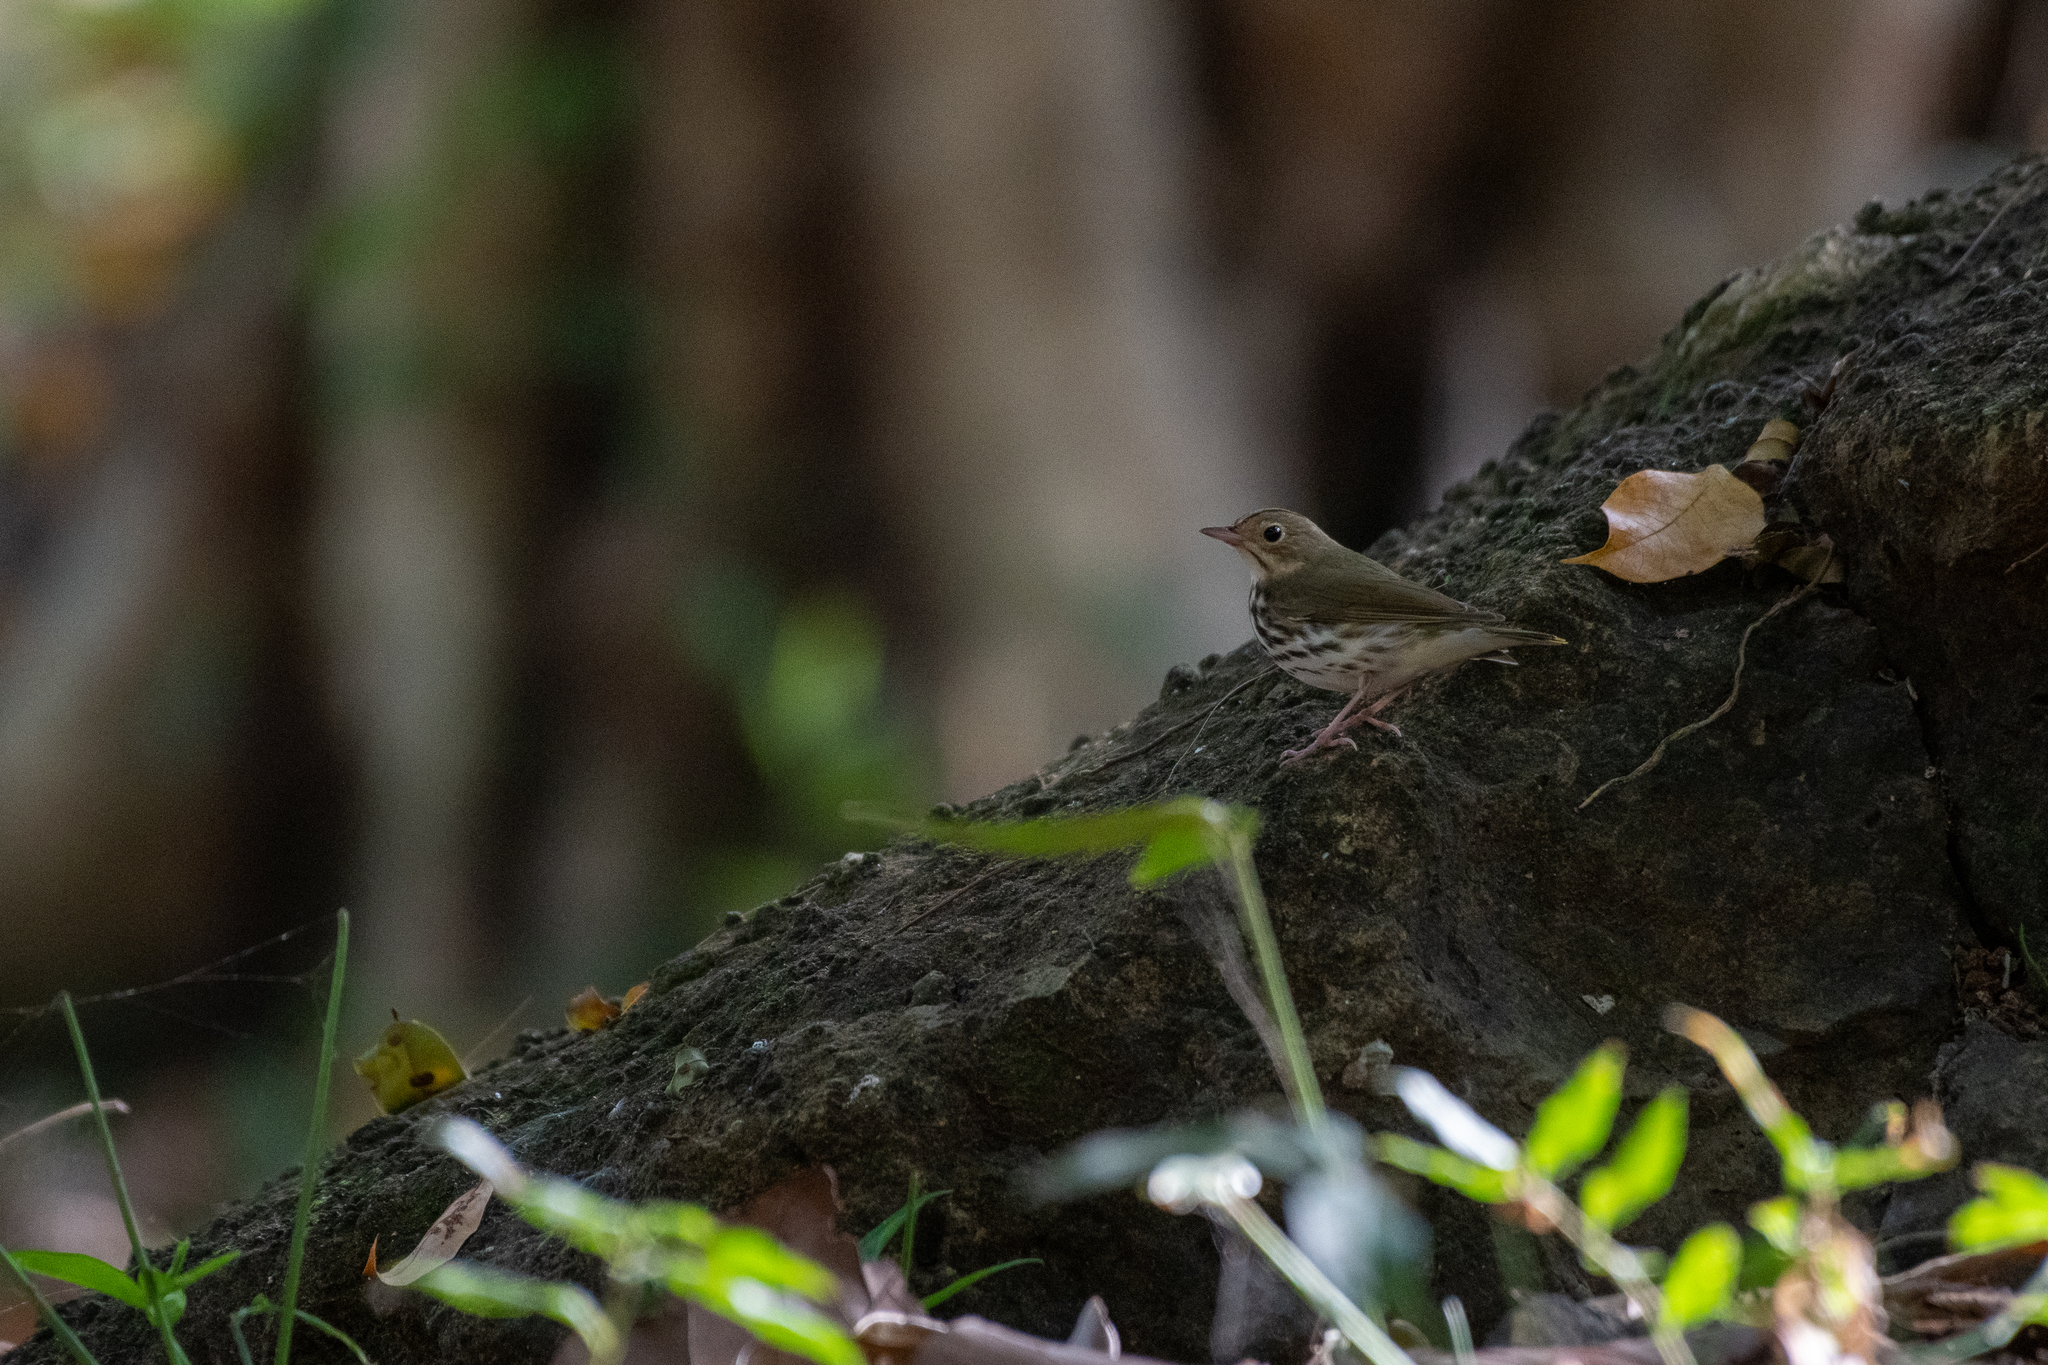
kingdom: Animalia
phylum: Chordata
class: Aves
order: Passeriformes
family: Parulidae
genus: Seiurus
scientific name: Seiurus aurocapilla
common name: Ovenbird
